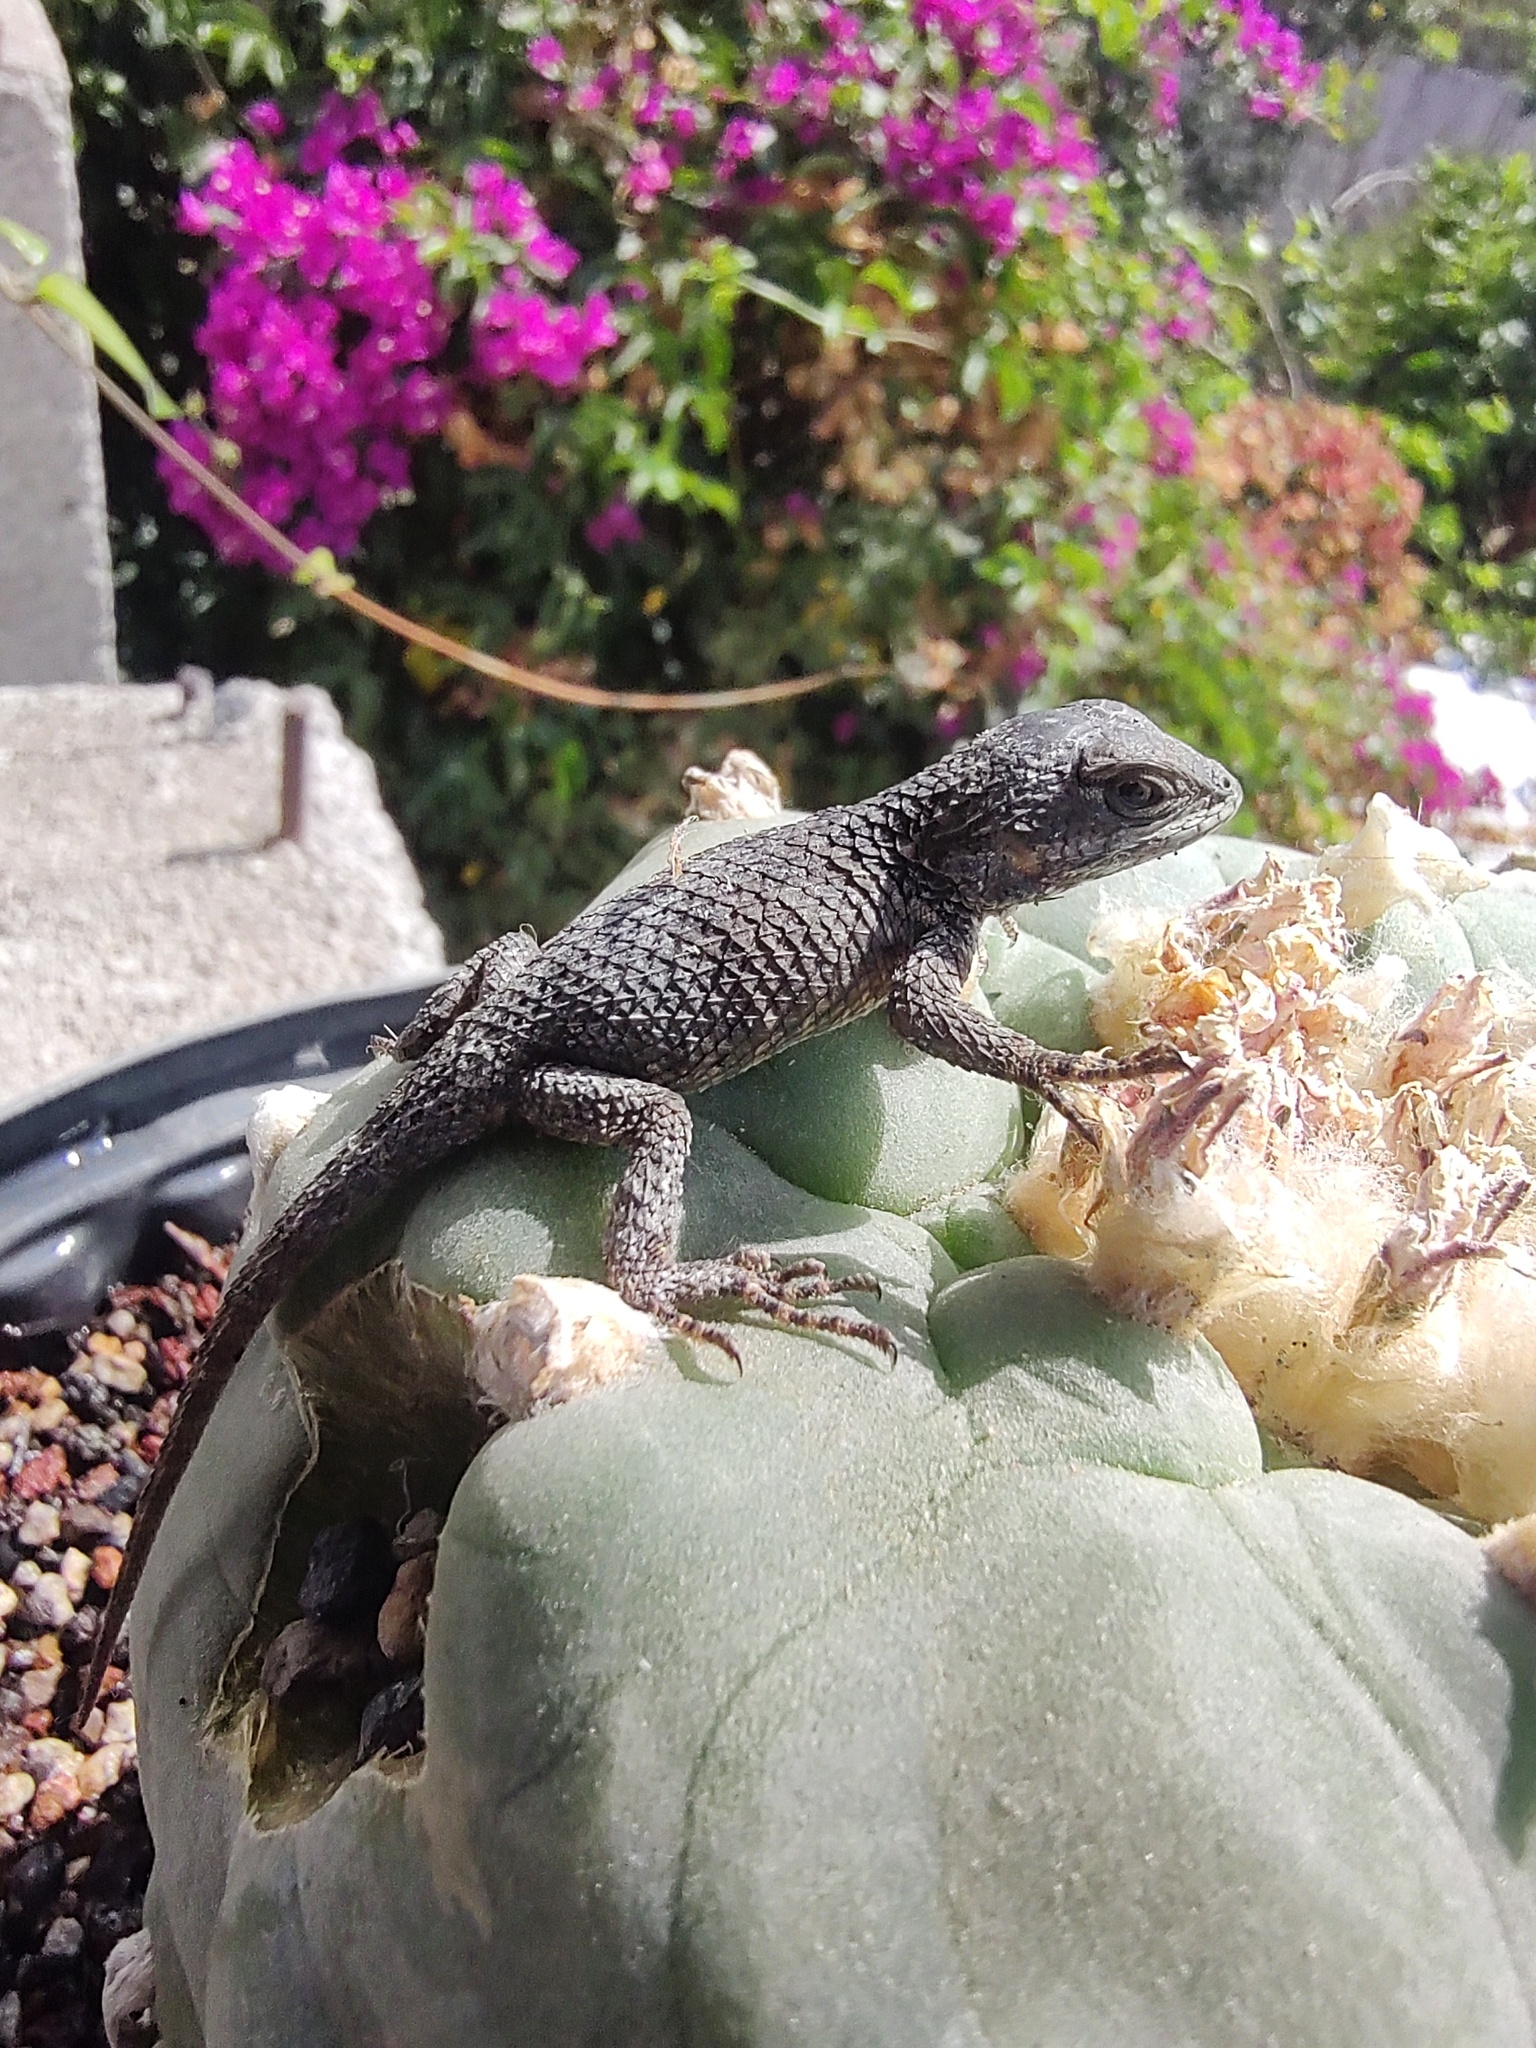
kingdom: Animalia
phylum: Chordata
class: Squamata
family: Phrynosomatidae
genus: Sceloporus
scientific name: Sceloporus torquatus
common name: Central plateau torquate lizard [melanogaster]
